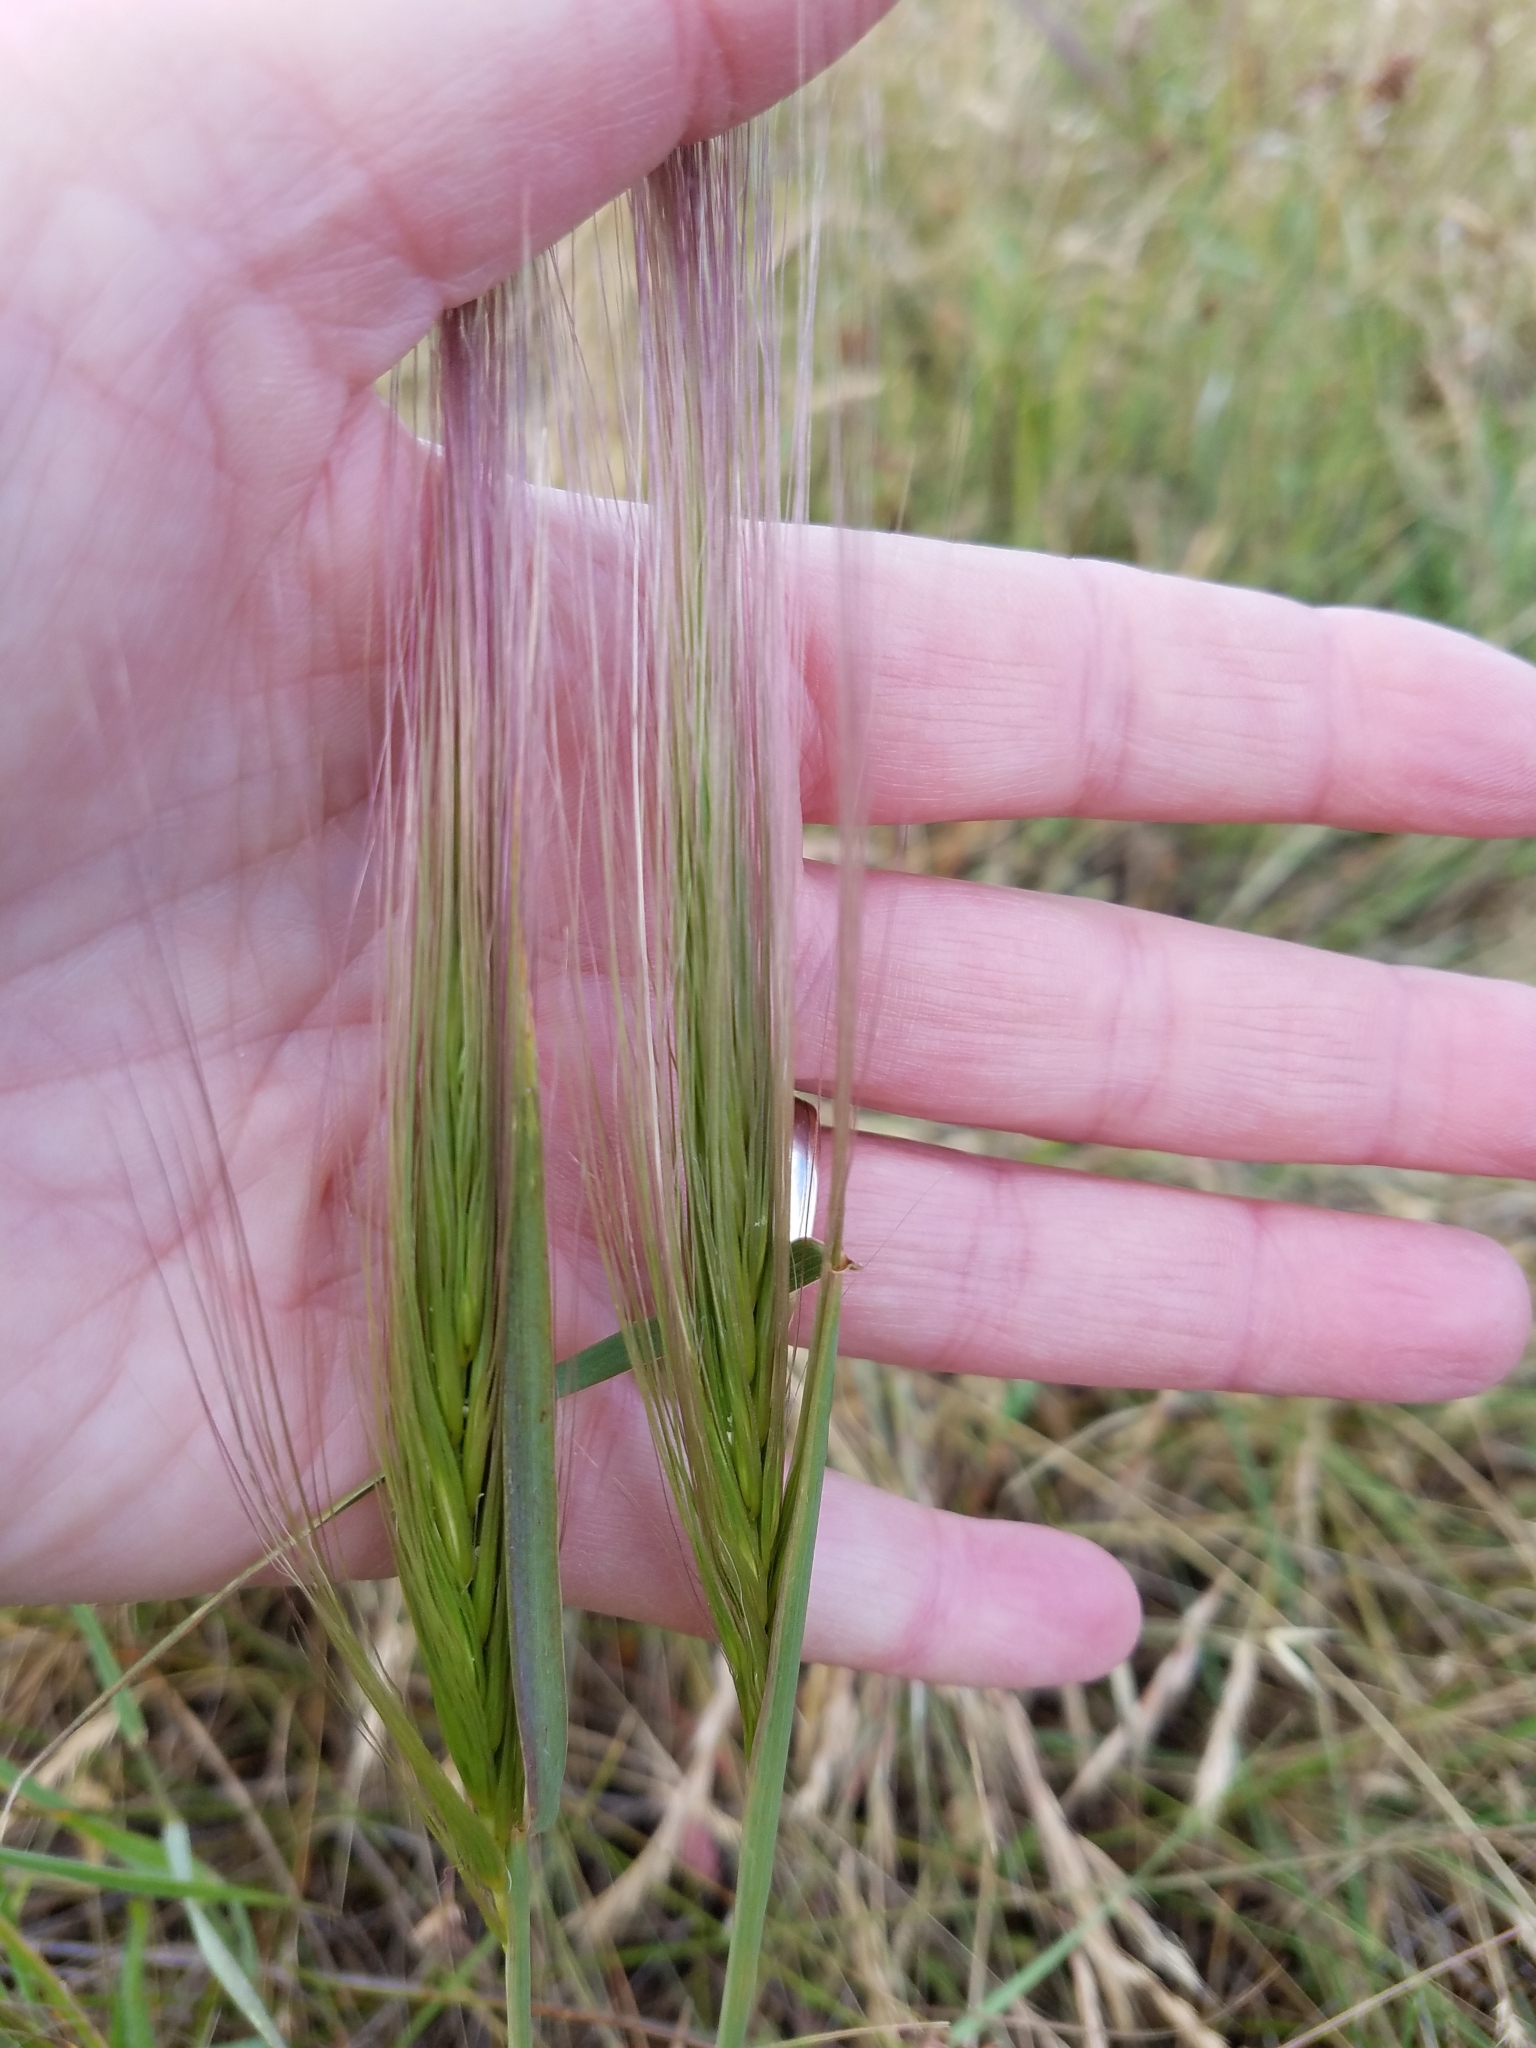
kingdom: Plantae
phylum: Tracheophyta
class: Liliopsida
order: Poales
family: Poaceae
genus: Elymus
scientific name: Elymus multisetus
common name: Big squirreltail
